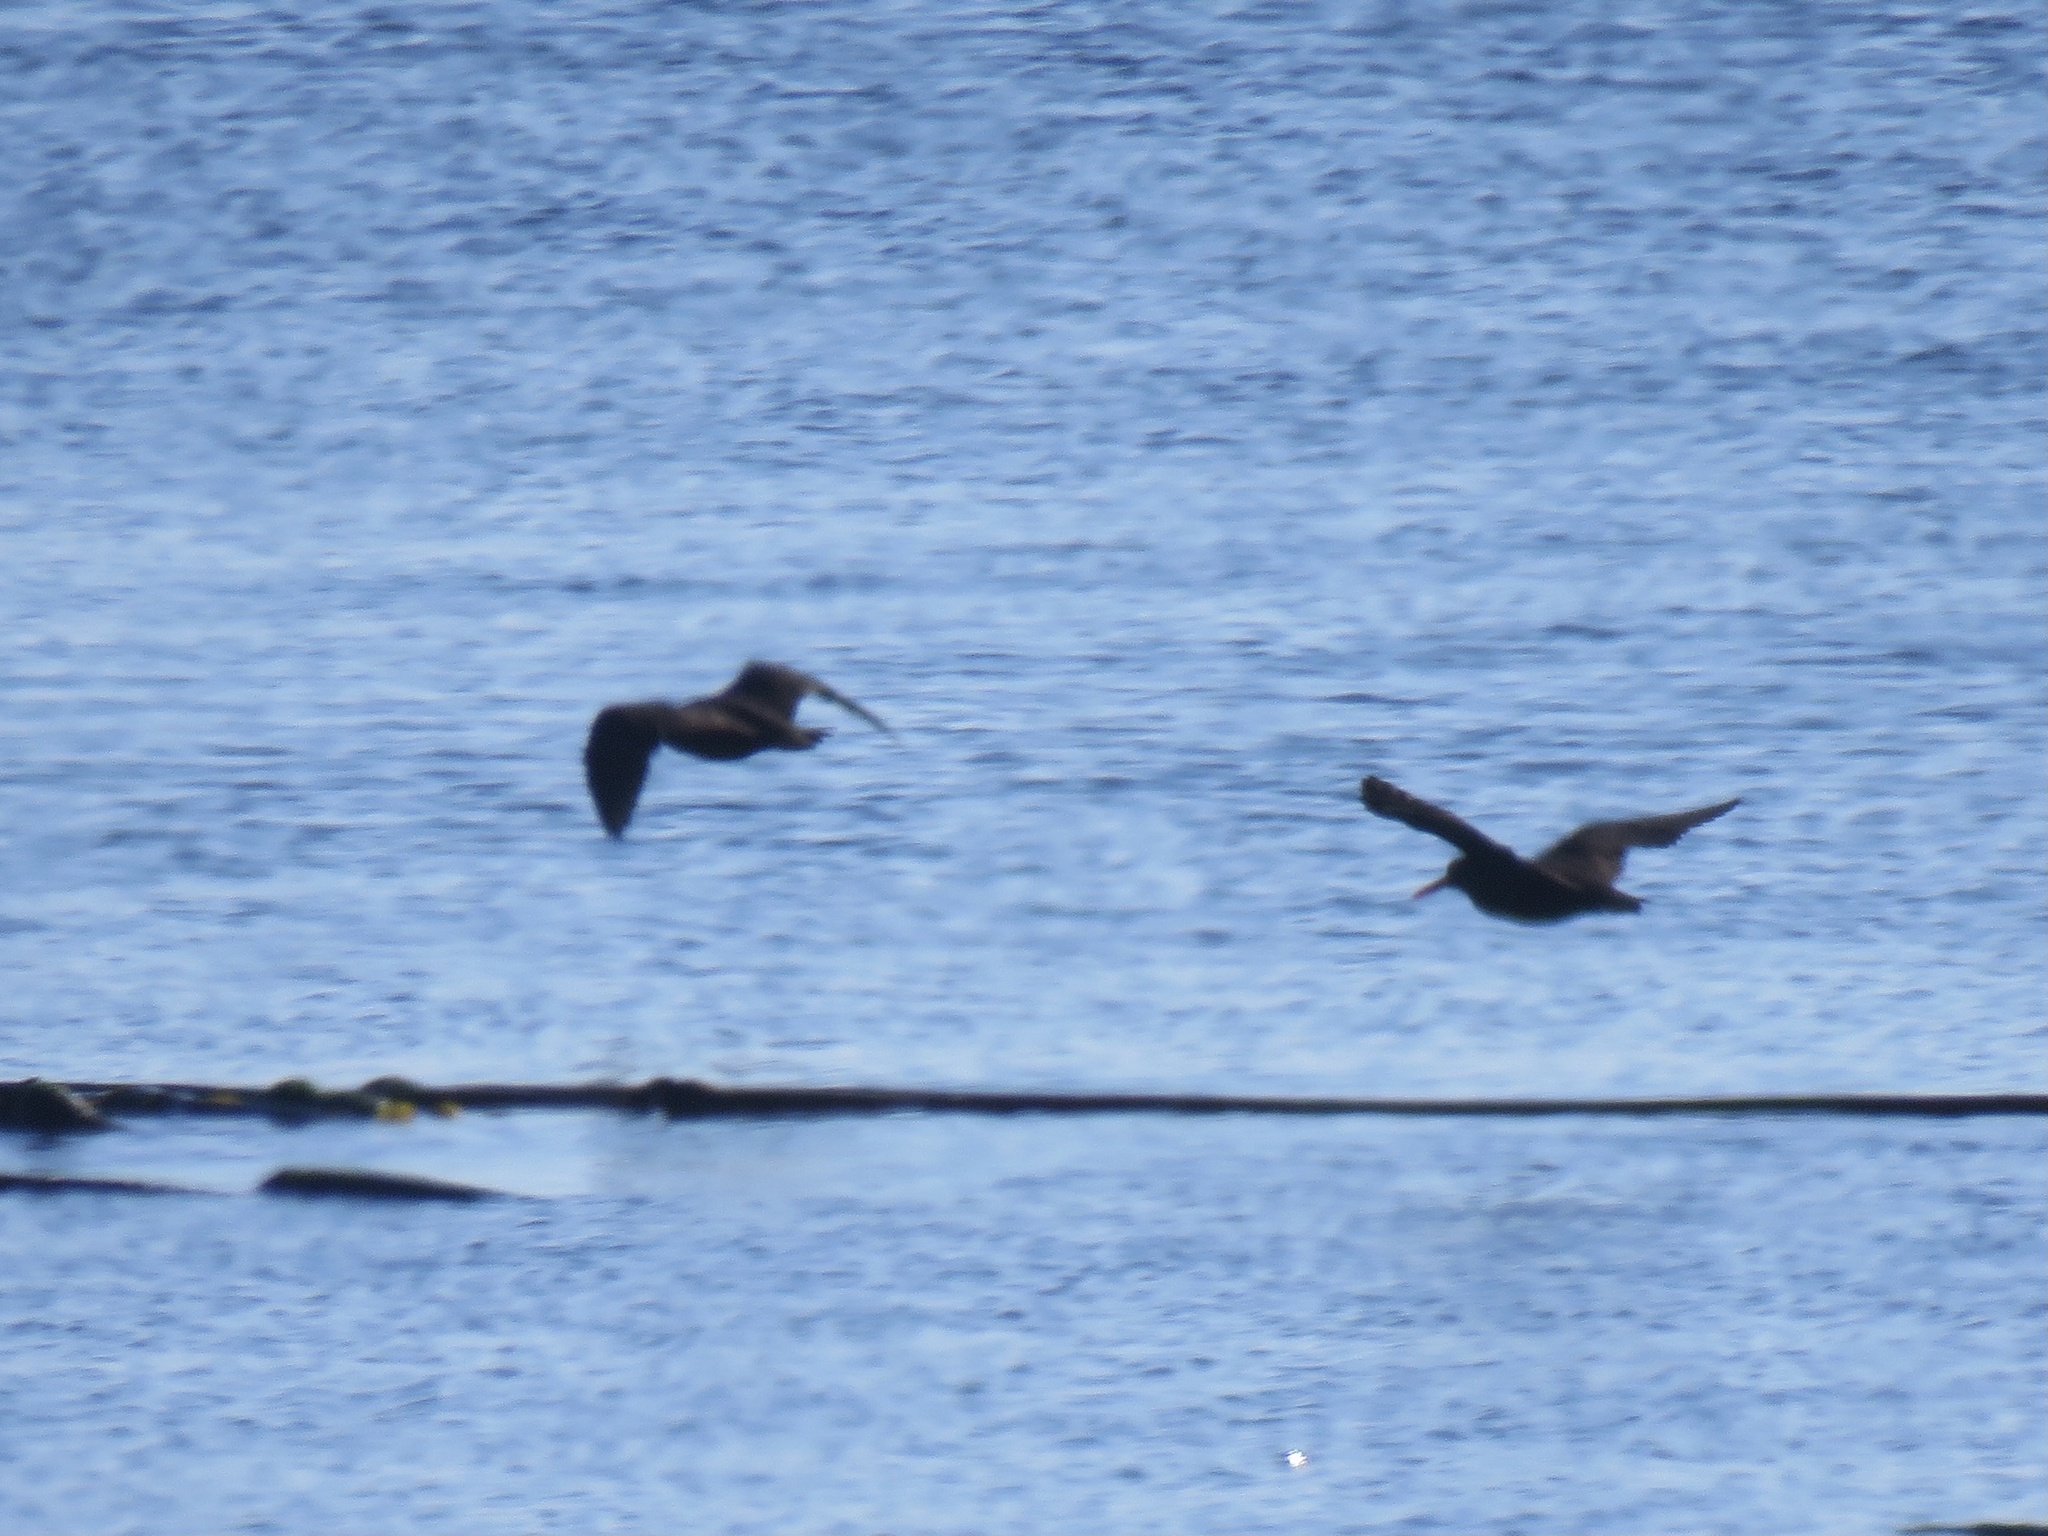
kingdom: Animalia
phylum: Chordata
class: Aves
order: Charadriiformes
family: Haematopodidae
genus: Haematopus
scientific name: Haematopus bachmani
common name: Black oystercatcher
